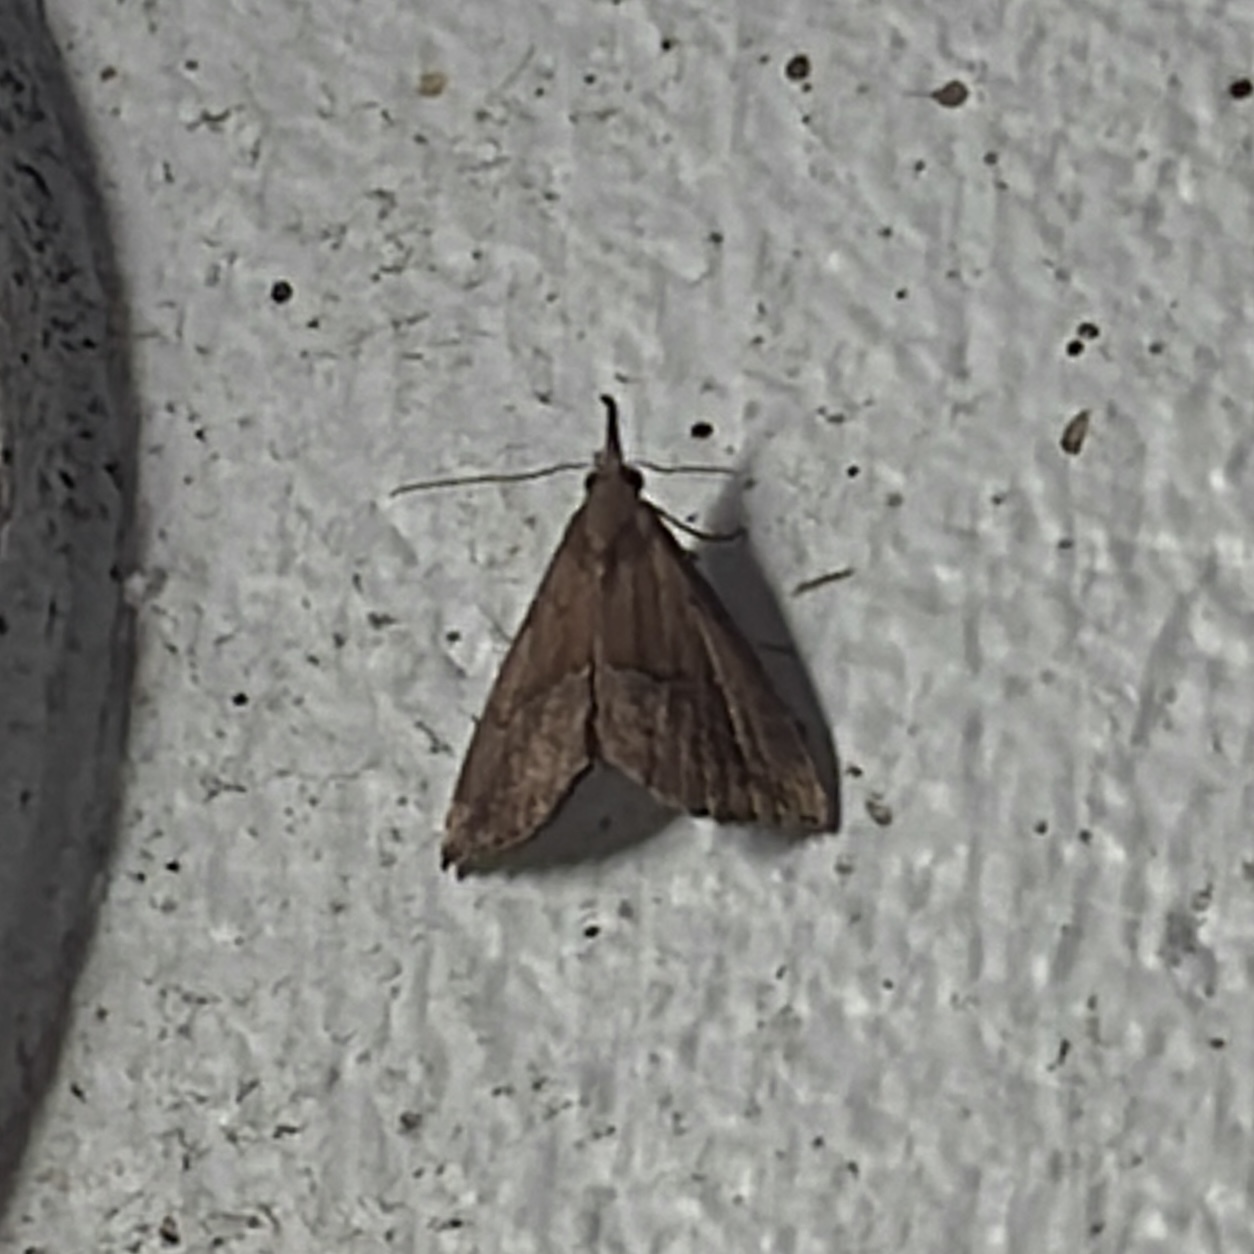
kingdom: Animalia
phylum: Arthropoda
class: Insecta
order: Lepidoptera
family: Erebidae
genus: Hypena
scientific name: Hypena porrectalis
